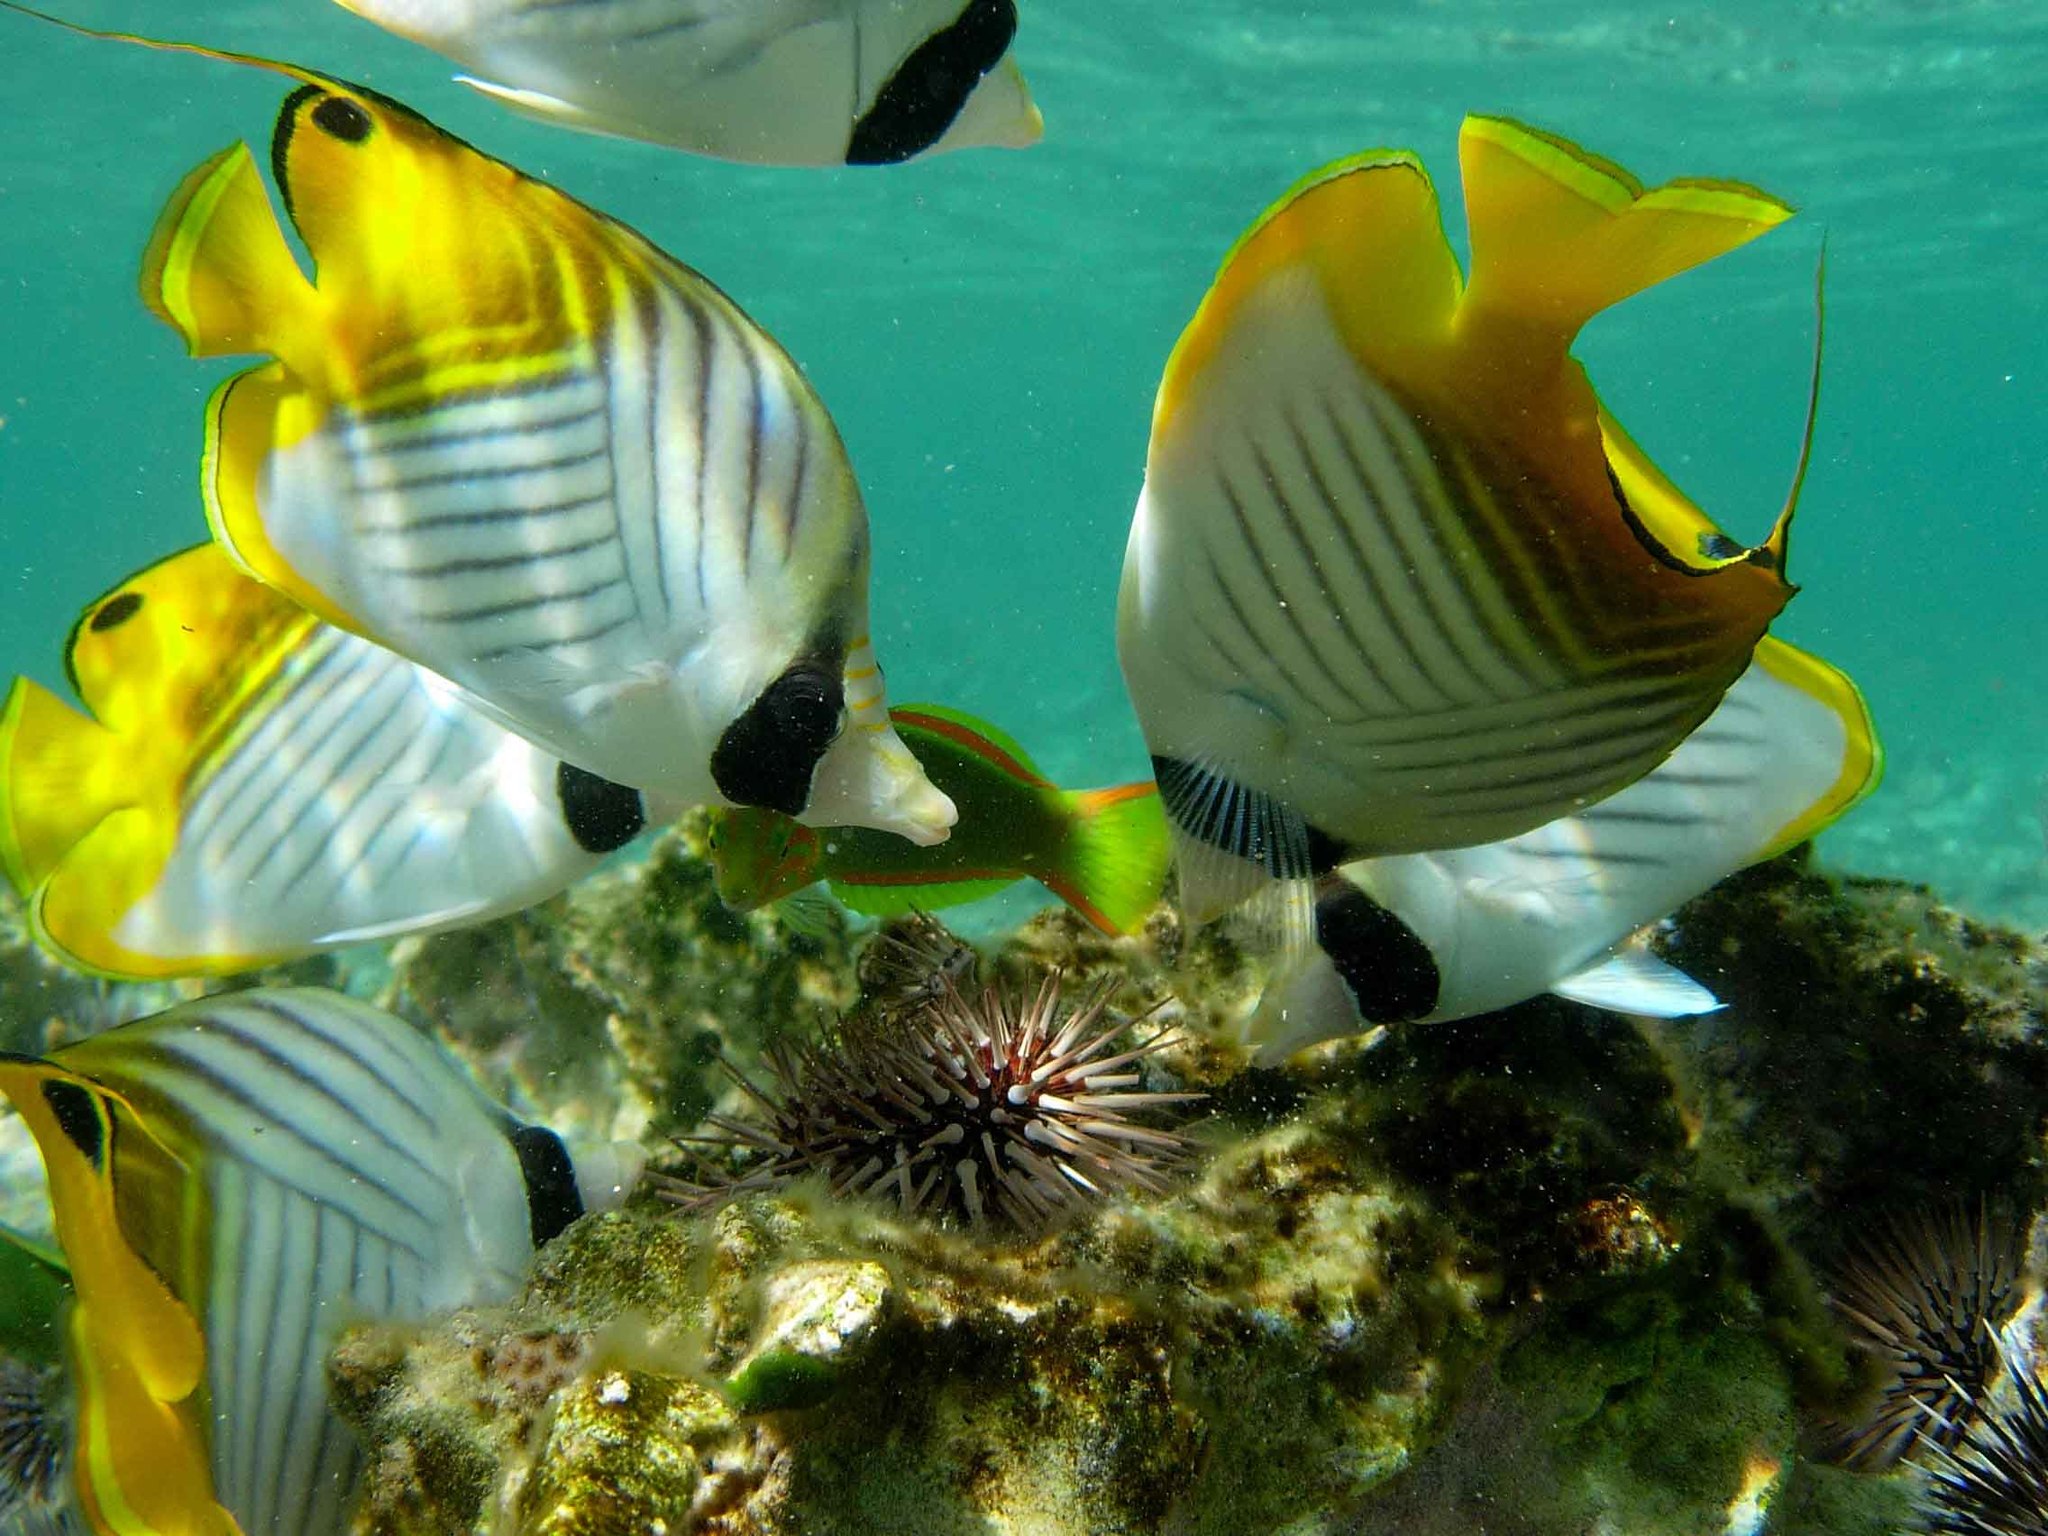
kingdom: Animalia
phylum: Chordata
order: Perciformes
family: Chaetodontidae
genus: Chaetodon
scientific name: Chaetodon auriga
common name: Threadfin butterflyfish
